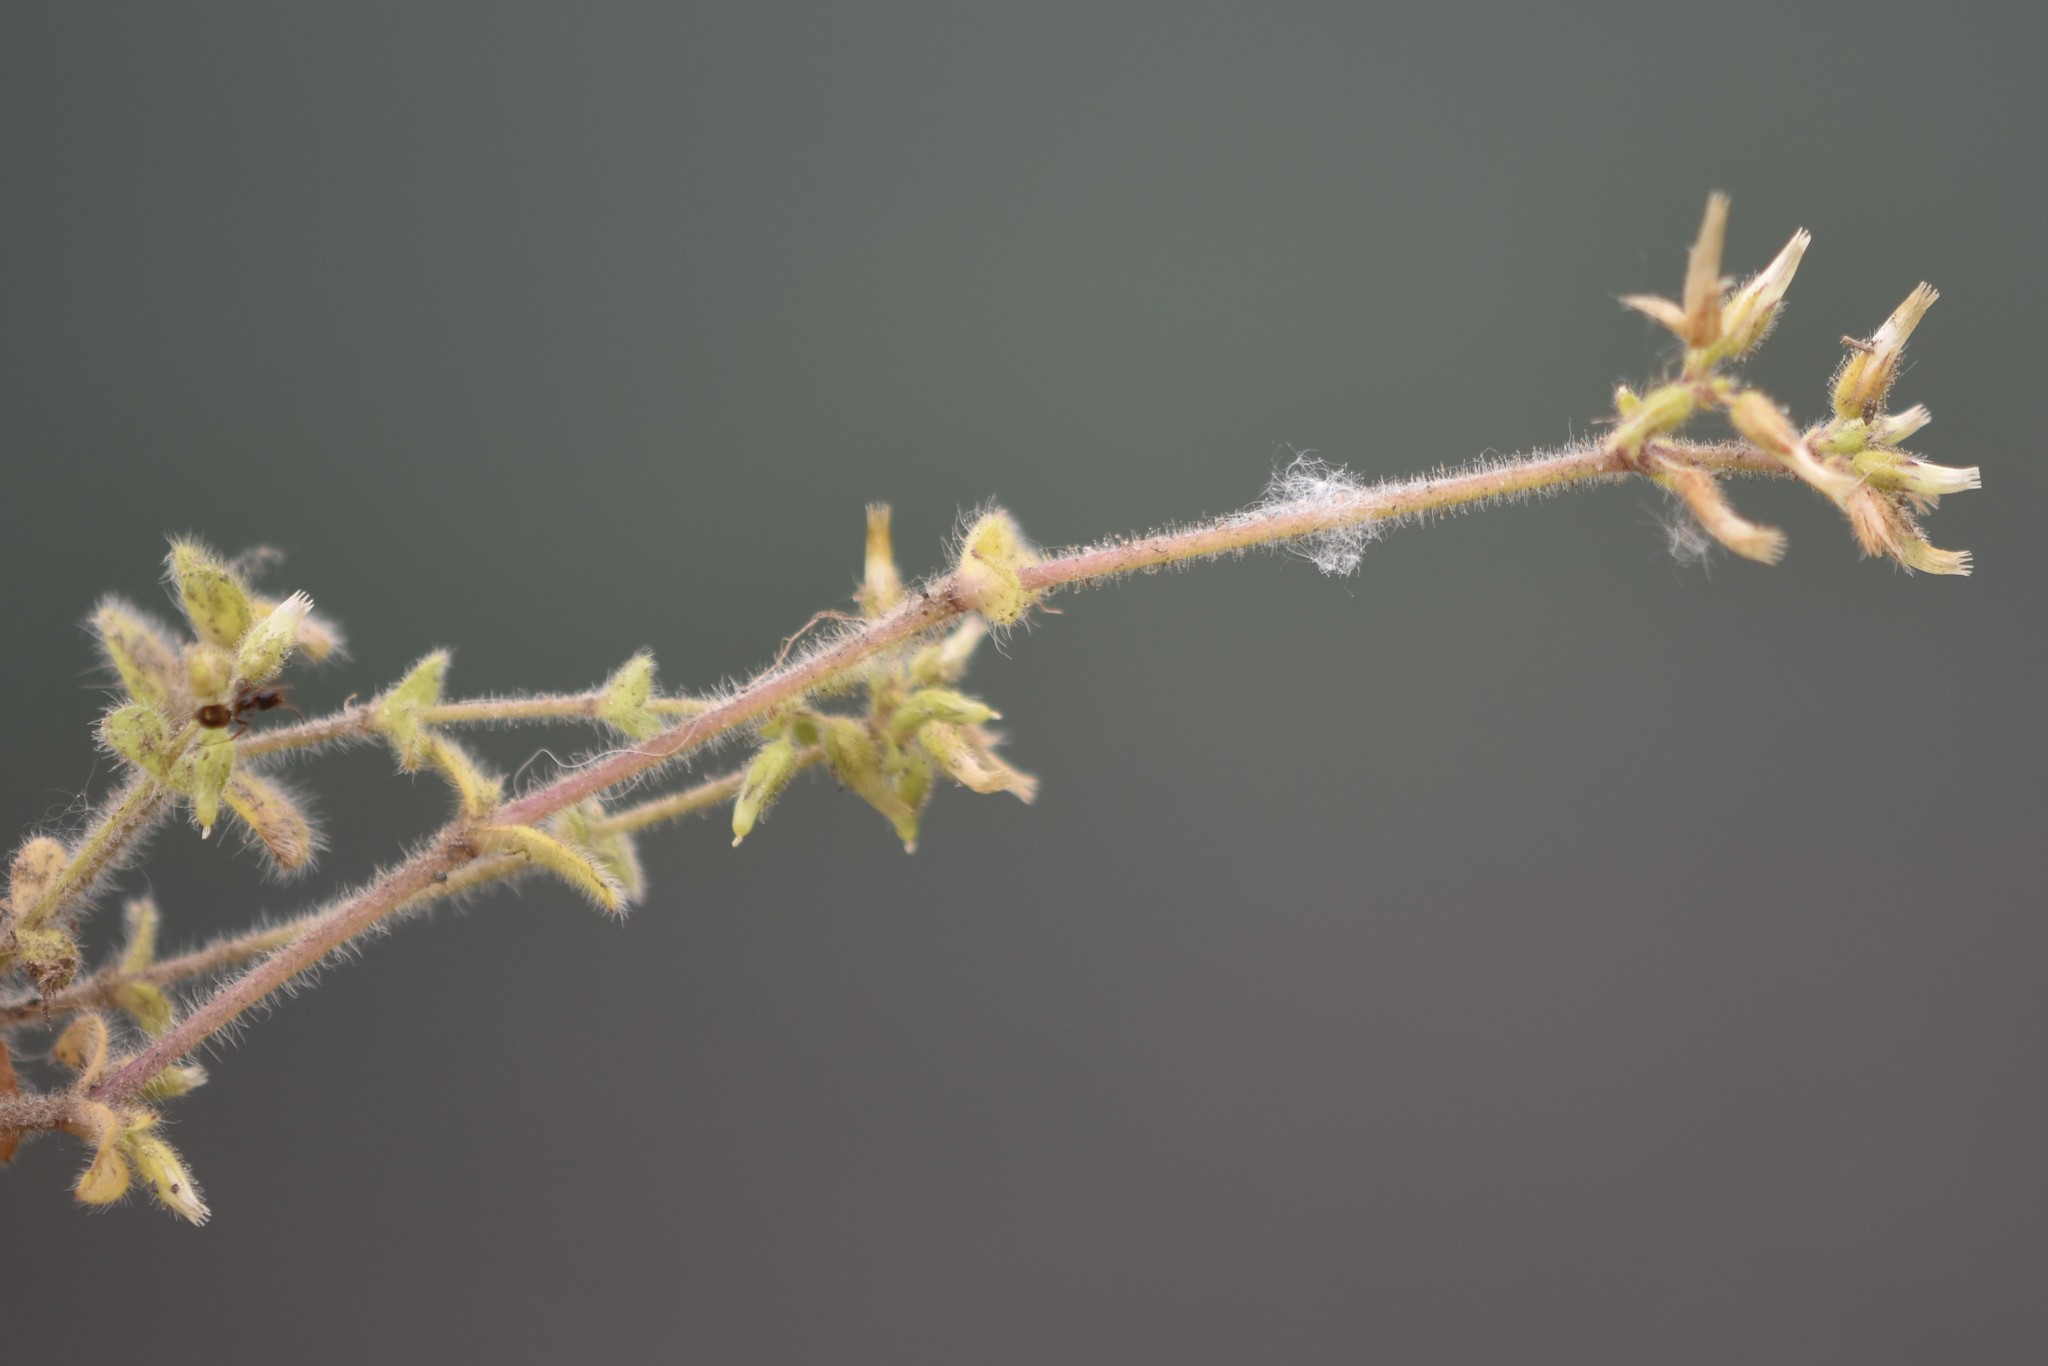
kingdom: Plantae
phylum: Tracheophyta
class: Magnoliopsida
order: Caryophyllales
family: Caryophyllaceae
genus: Cerastium
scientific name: Cerastium glomeratum
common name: Sticky chickweed
